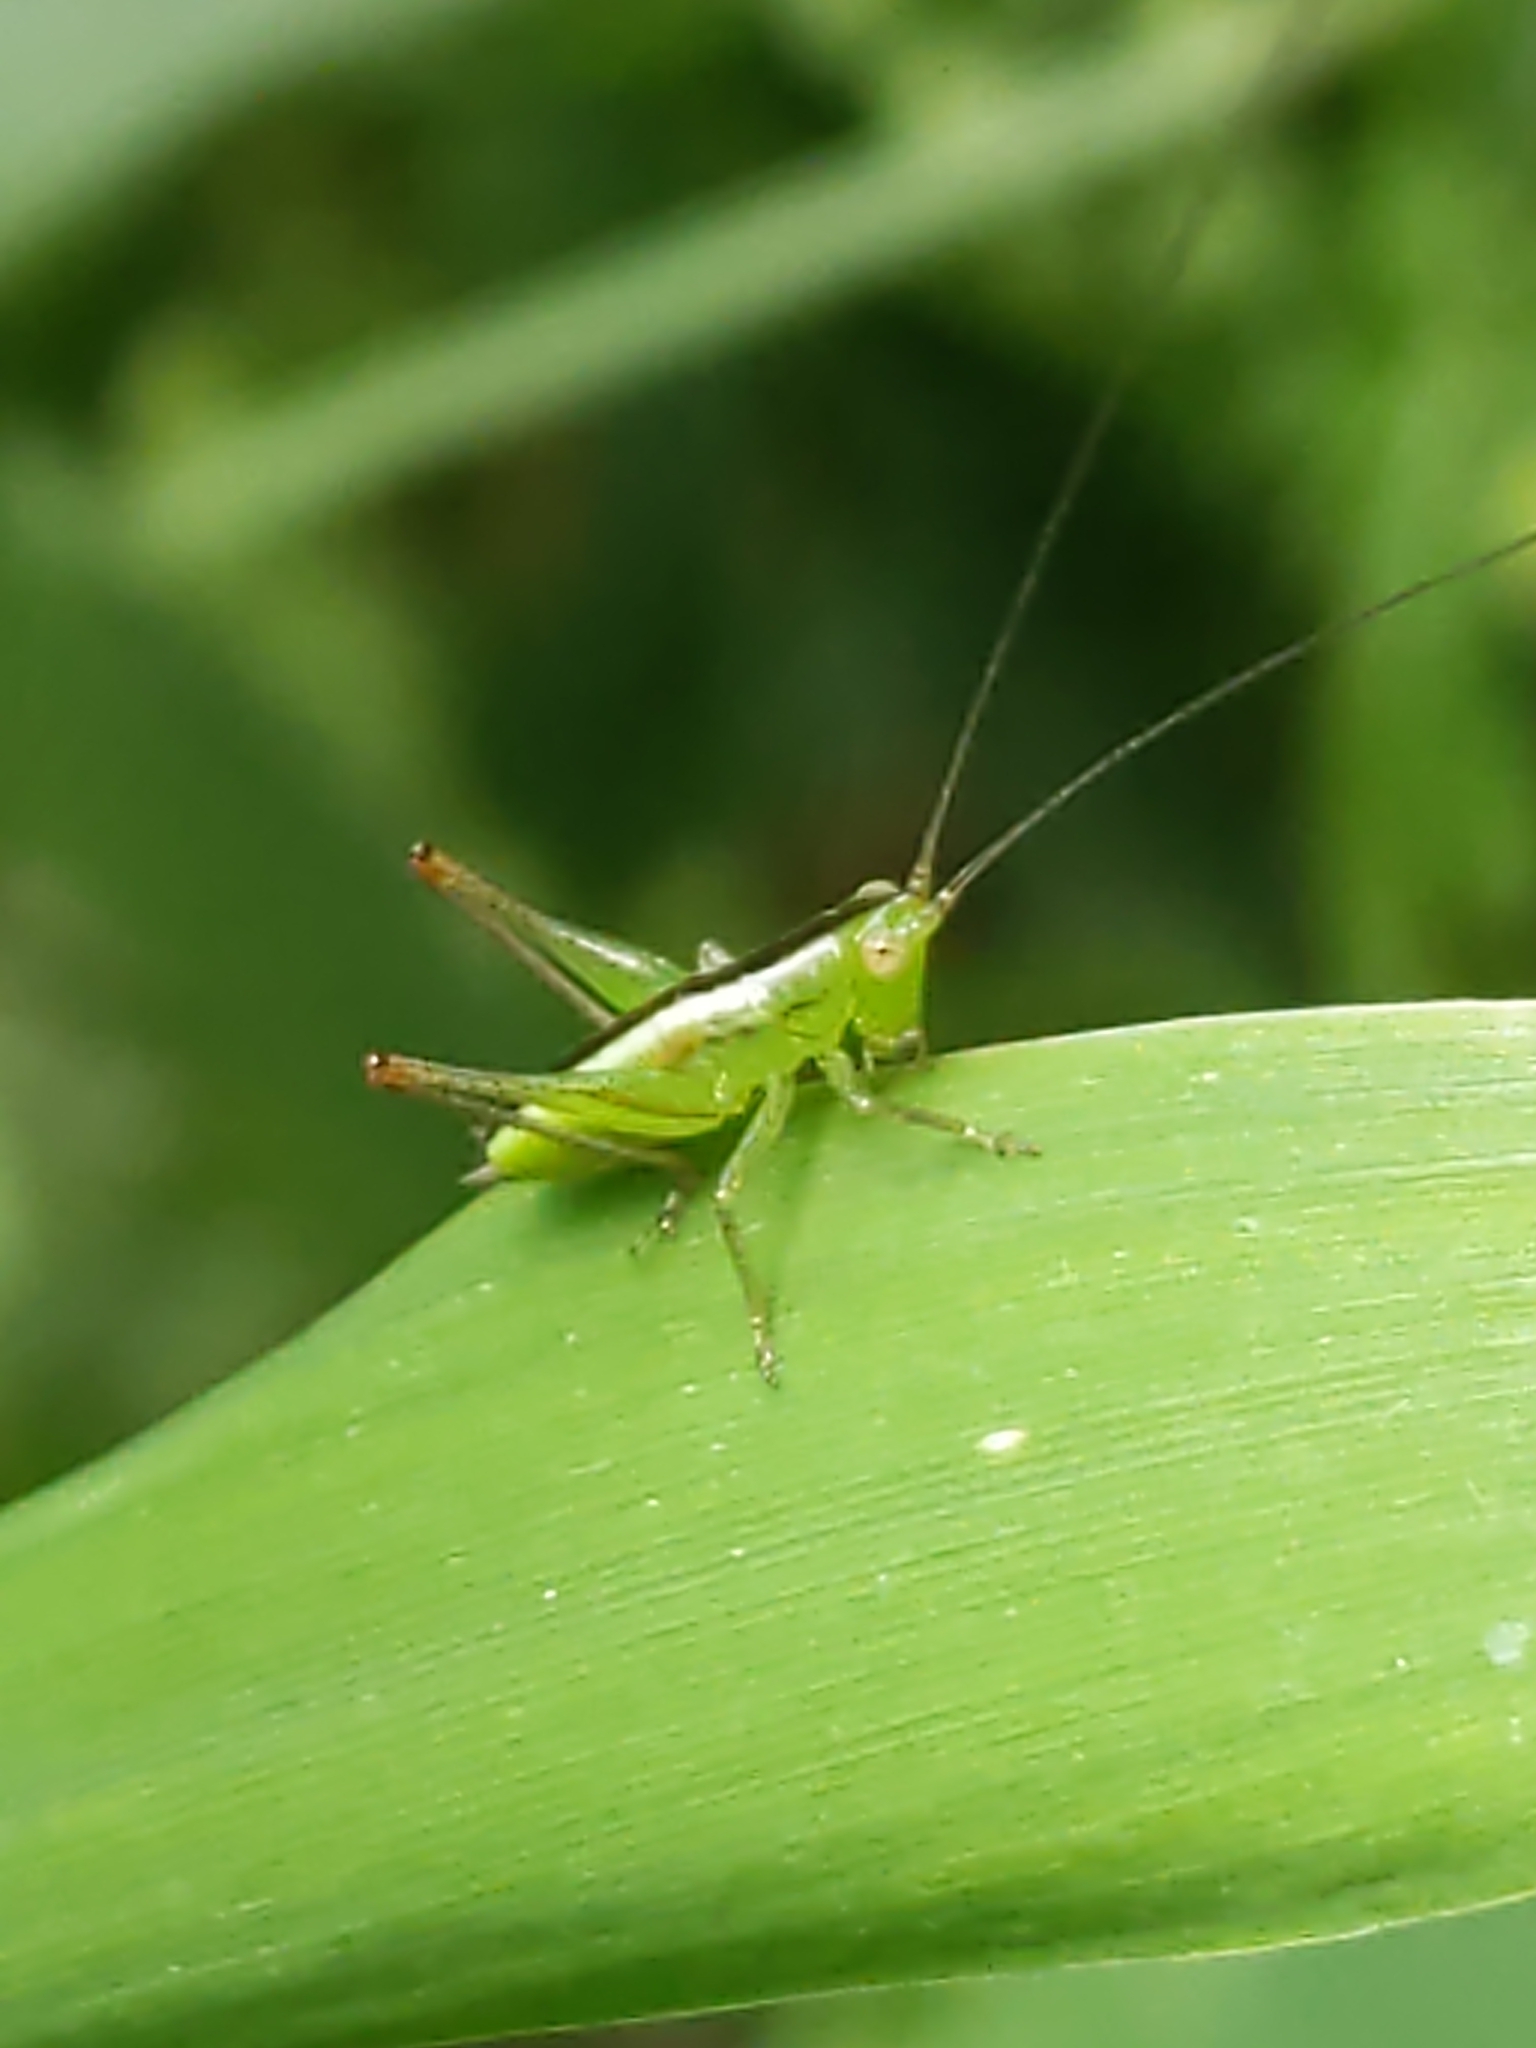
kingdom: Animalia
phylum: Arthropoda
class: Insecta
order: Orthoptera
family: Tettigoniidae
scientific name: Tettigoniidae
